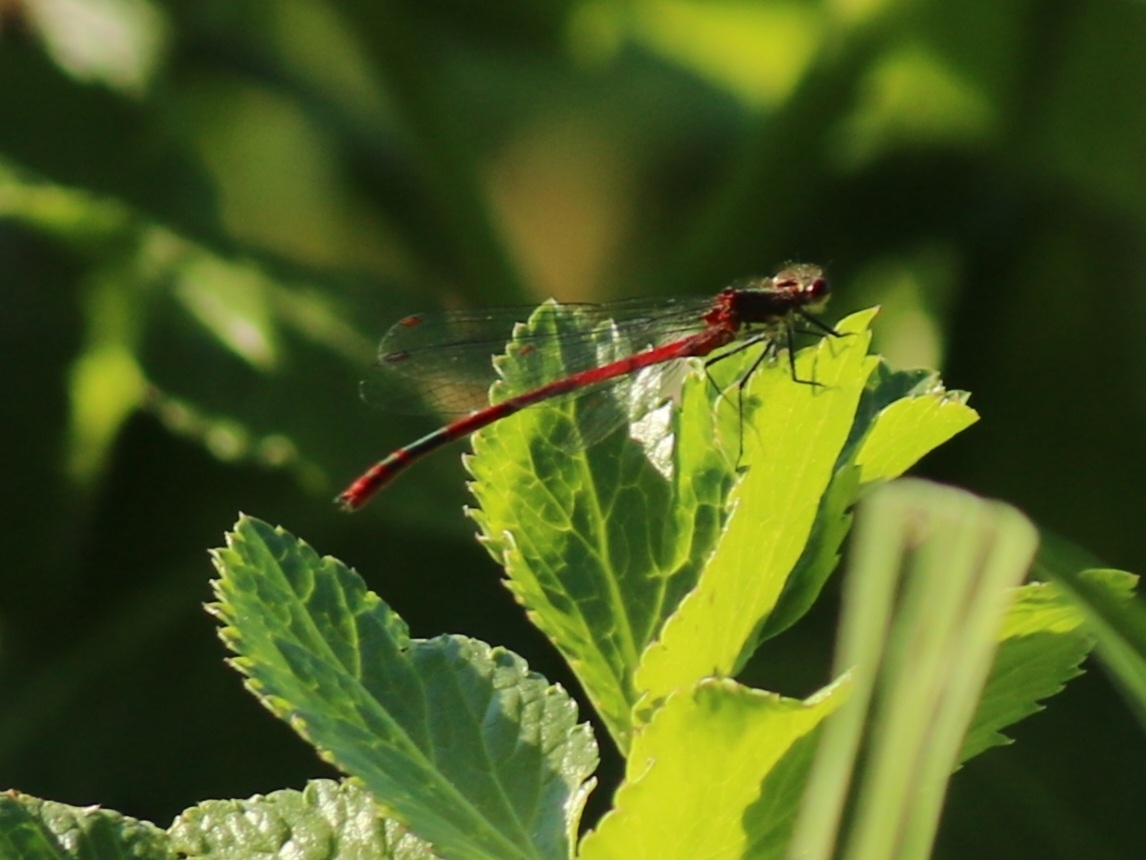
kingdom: Animalia
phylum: Arthropoda
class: Insecta
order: Odonata
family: Coenagrionidae
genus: Pyrrhosoma
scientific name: Pyrrhosoma nymphula
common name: Large red damsel
